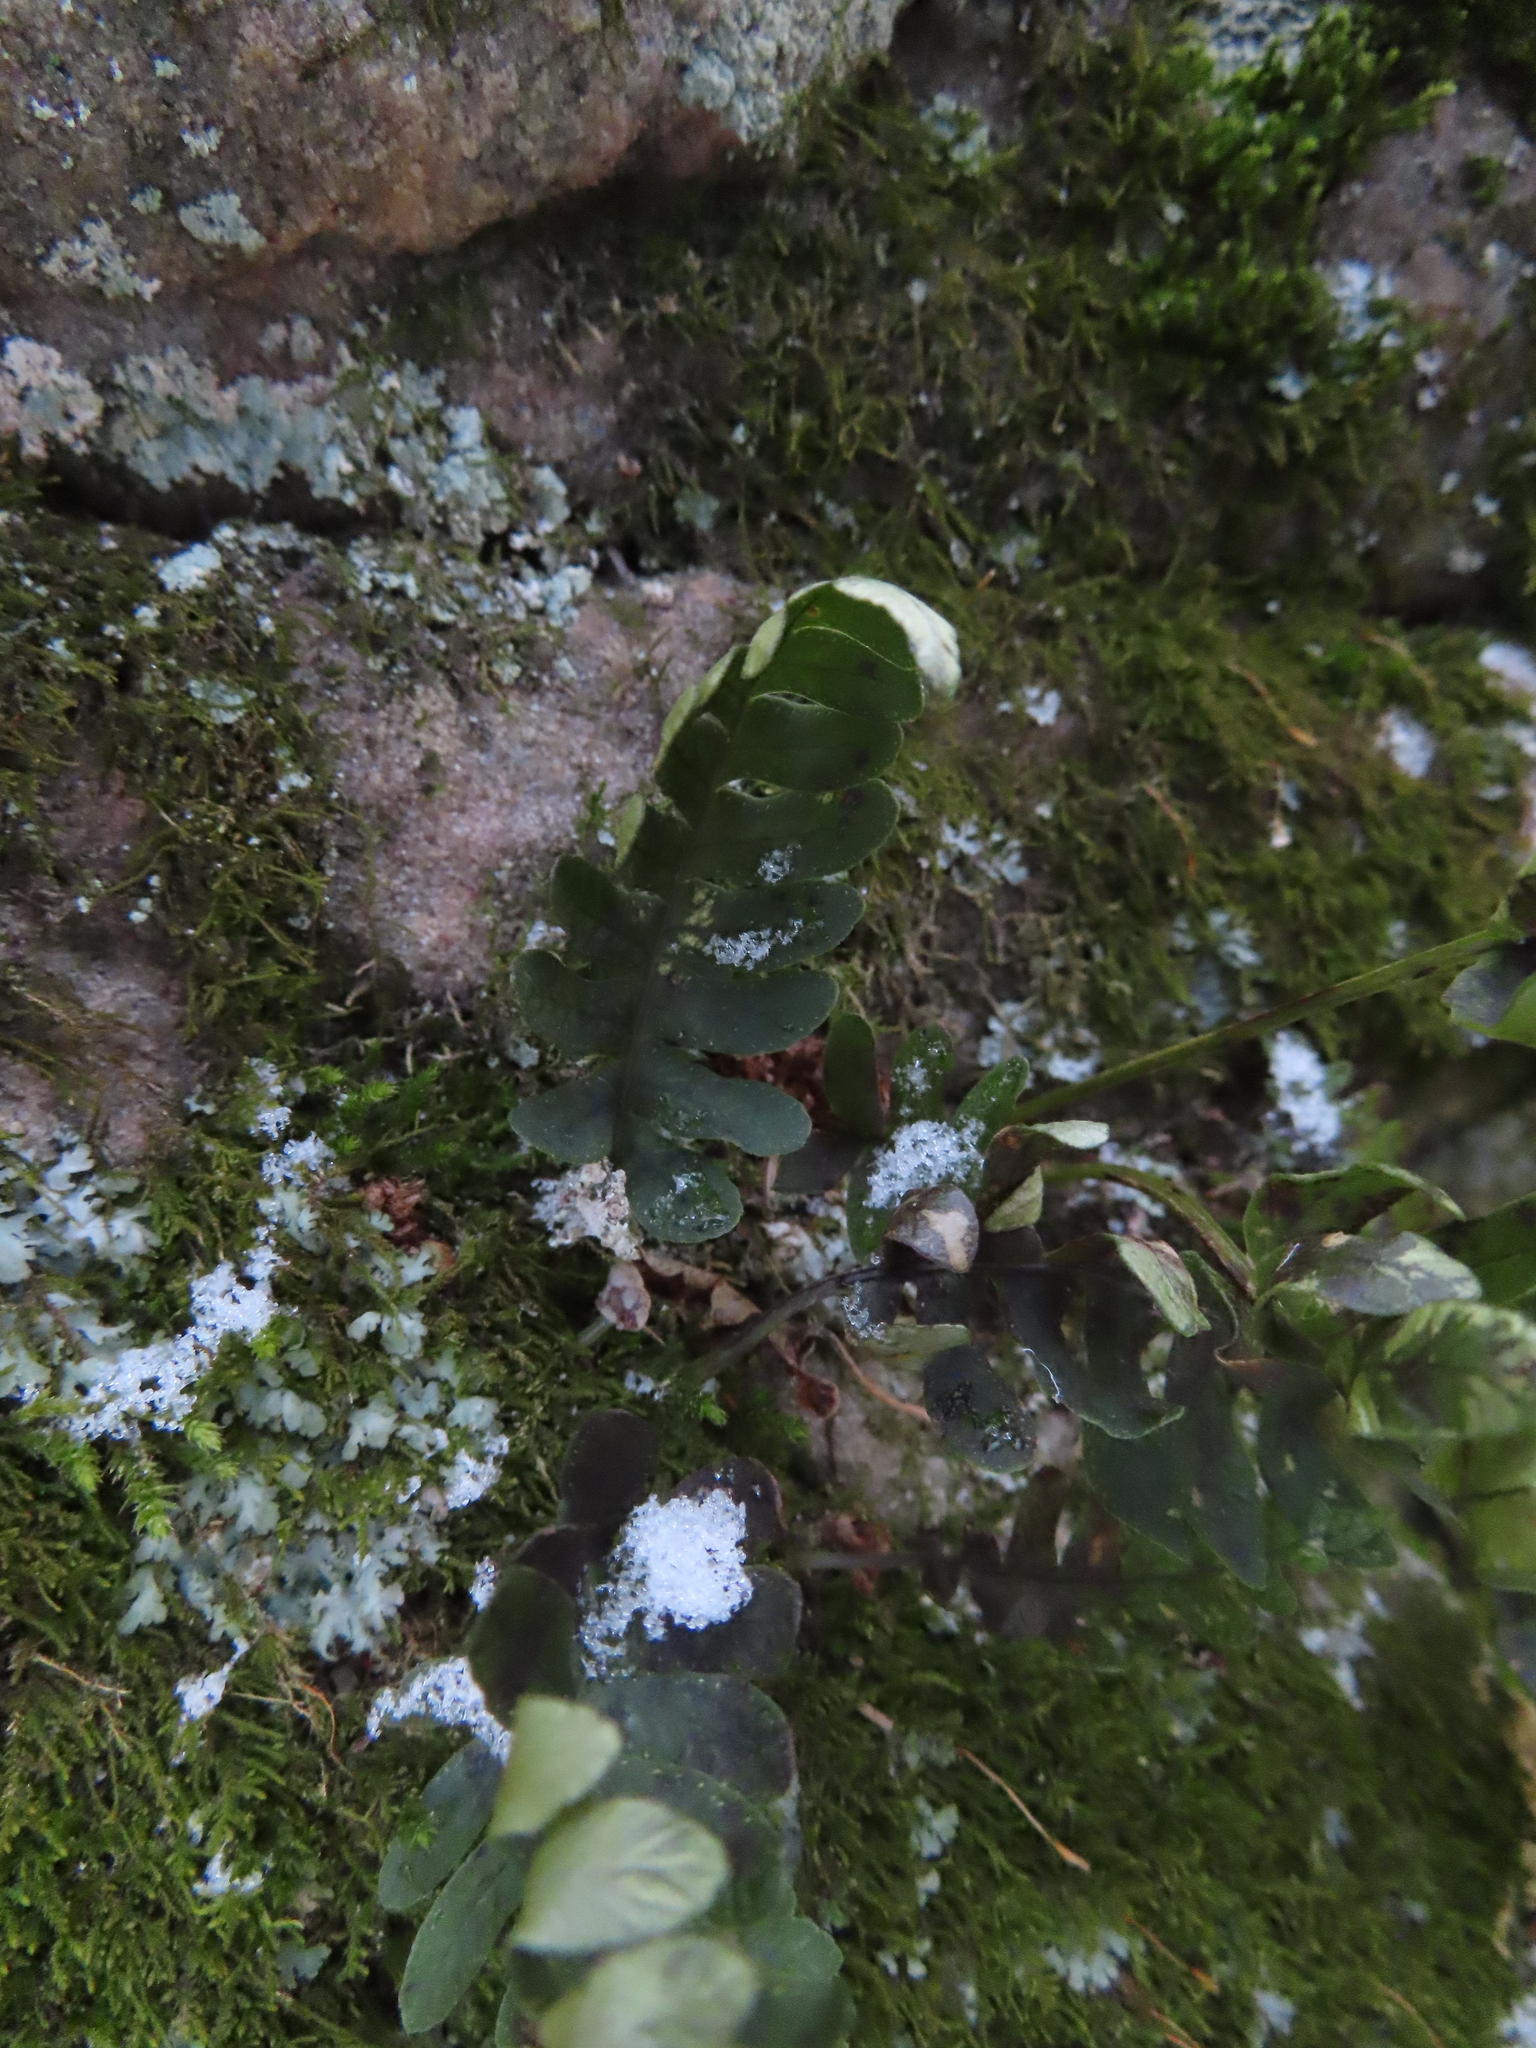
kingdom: Plantae
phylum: Tracheophyta
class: Polypodiopsida
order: Polypodiales
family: Polypodiaceae
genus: Polypodium
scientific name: Polypodium virginianum
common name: American wall fern
